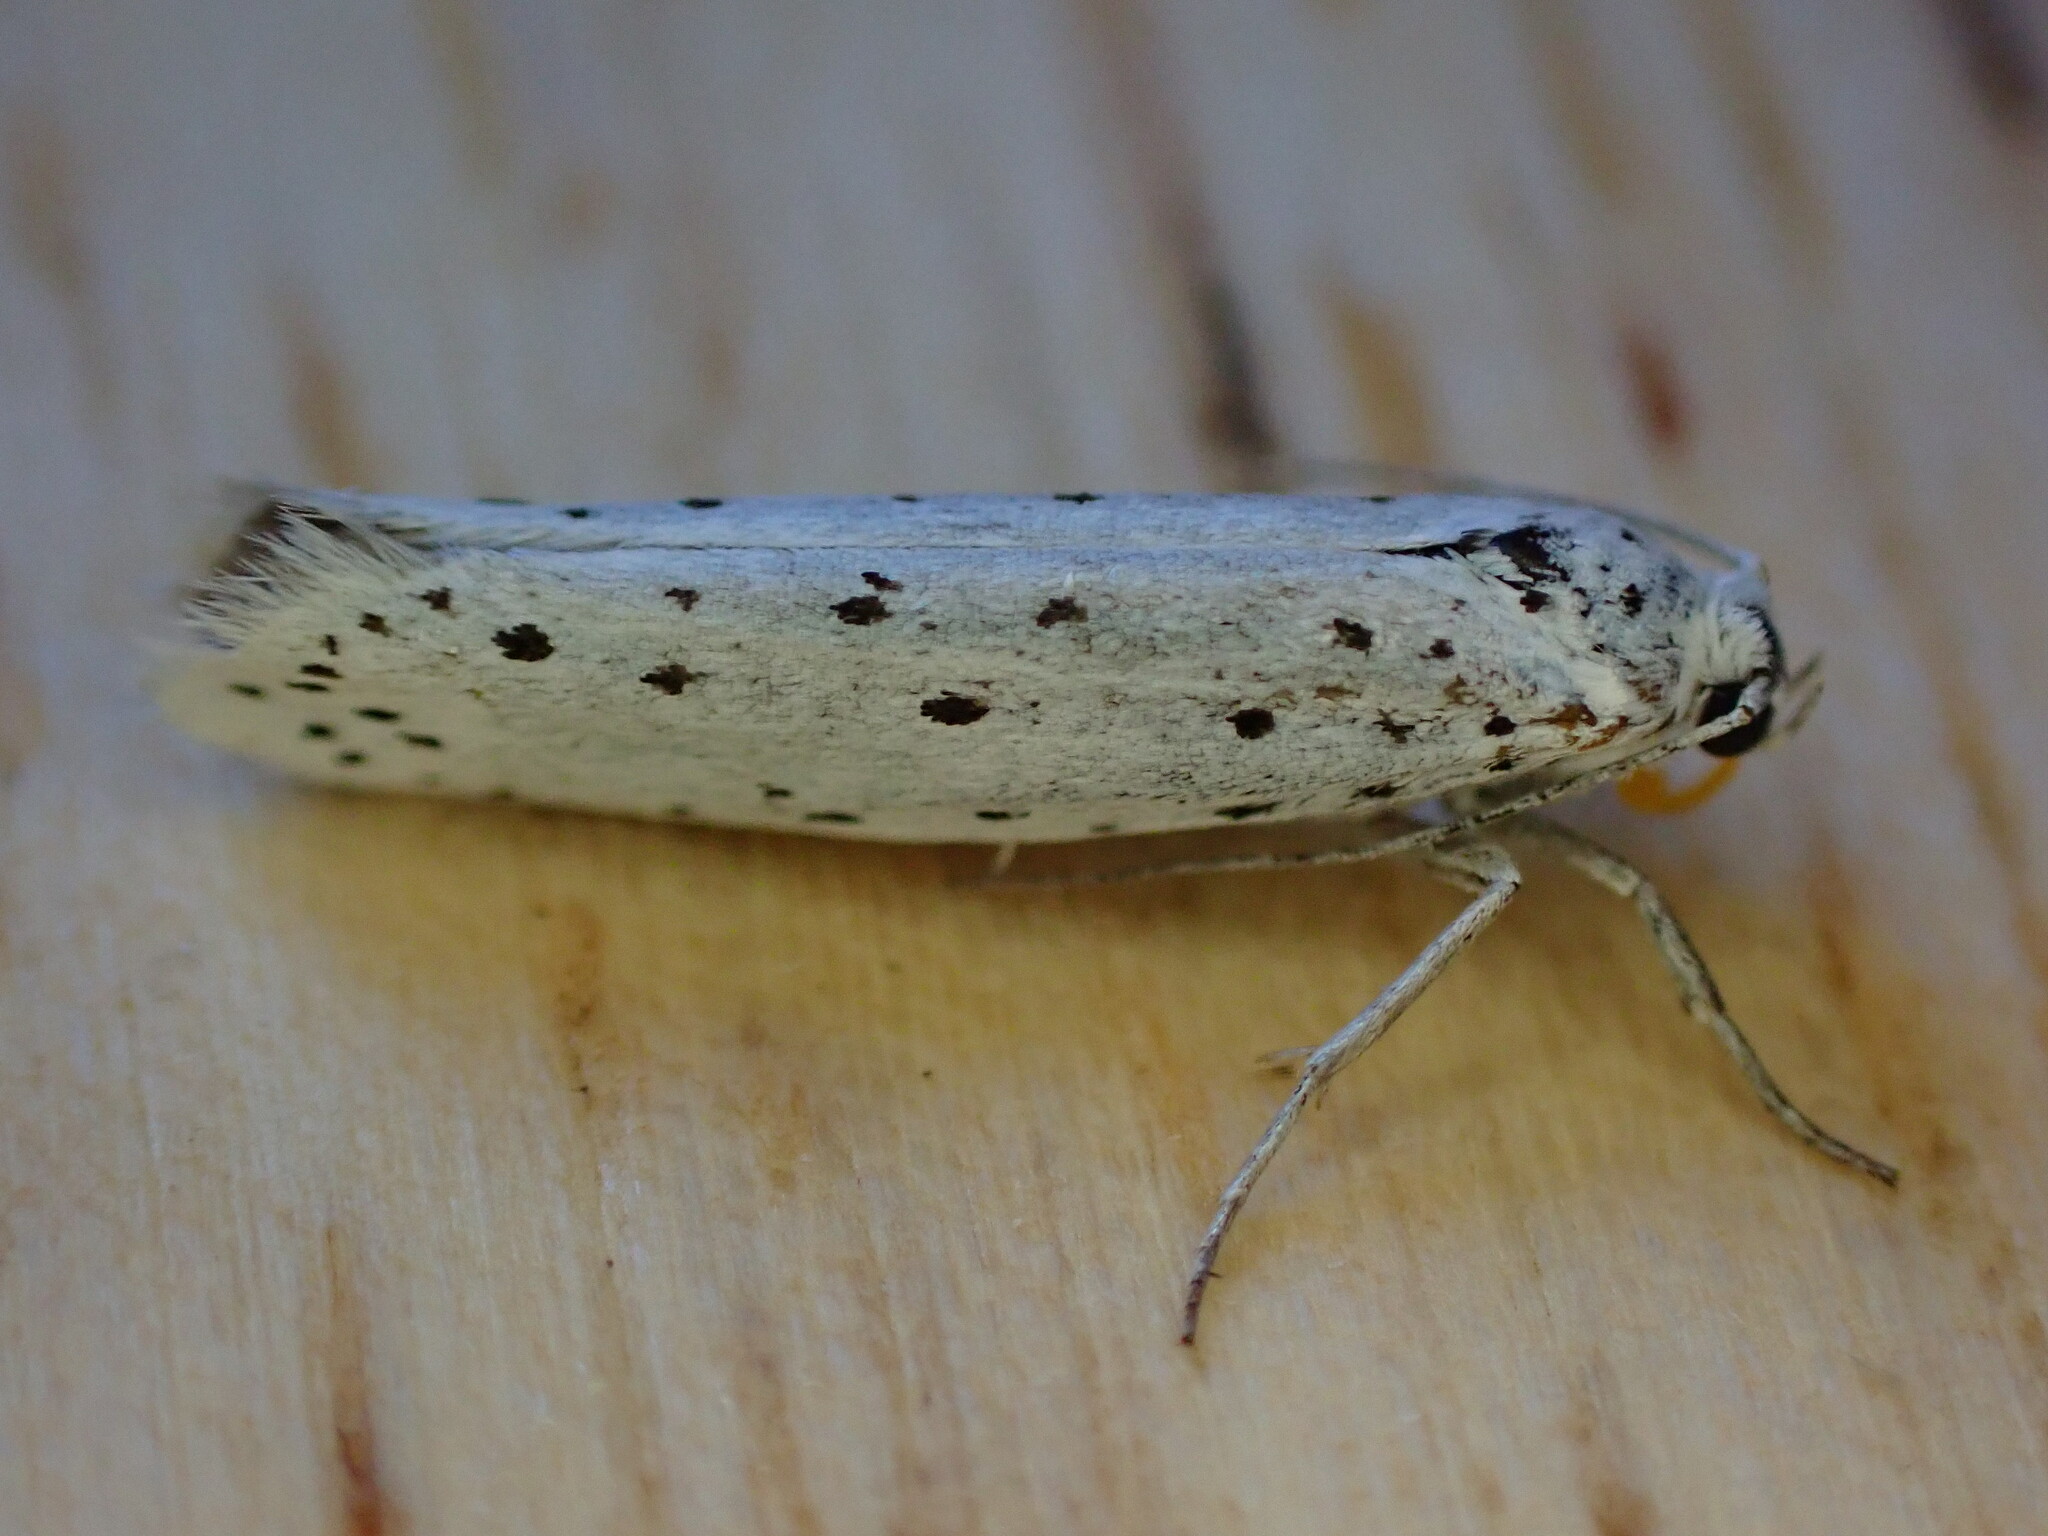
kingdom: Animalia
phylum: Arthropoda
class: Insecta
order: Lepidoptera
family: Yponomeutidae
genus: Yponomeuta
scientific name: Yponomeuta
